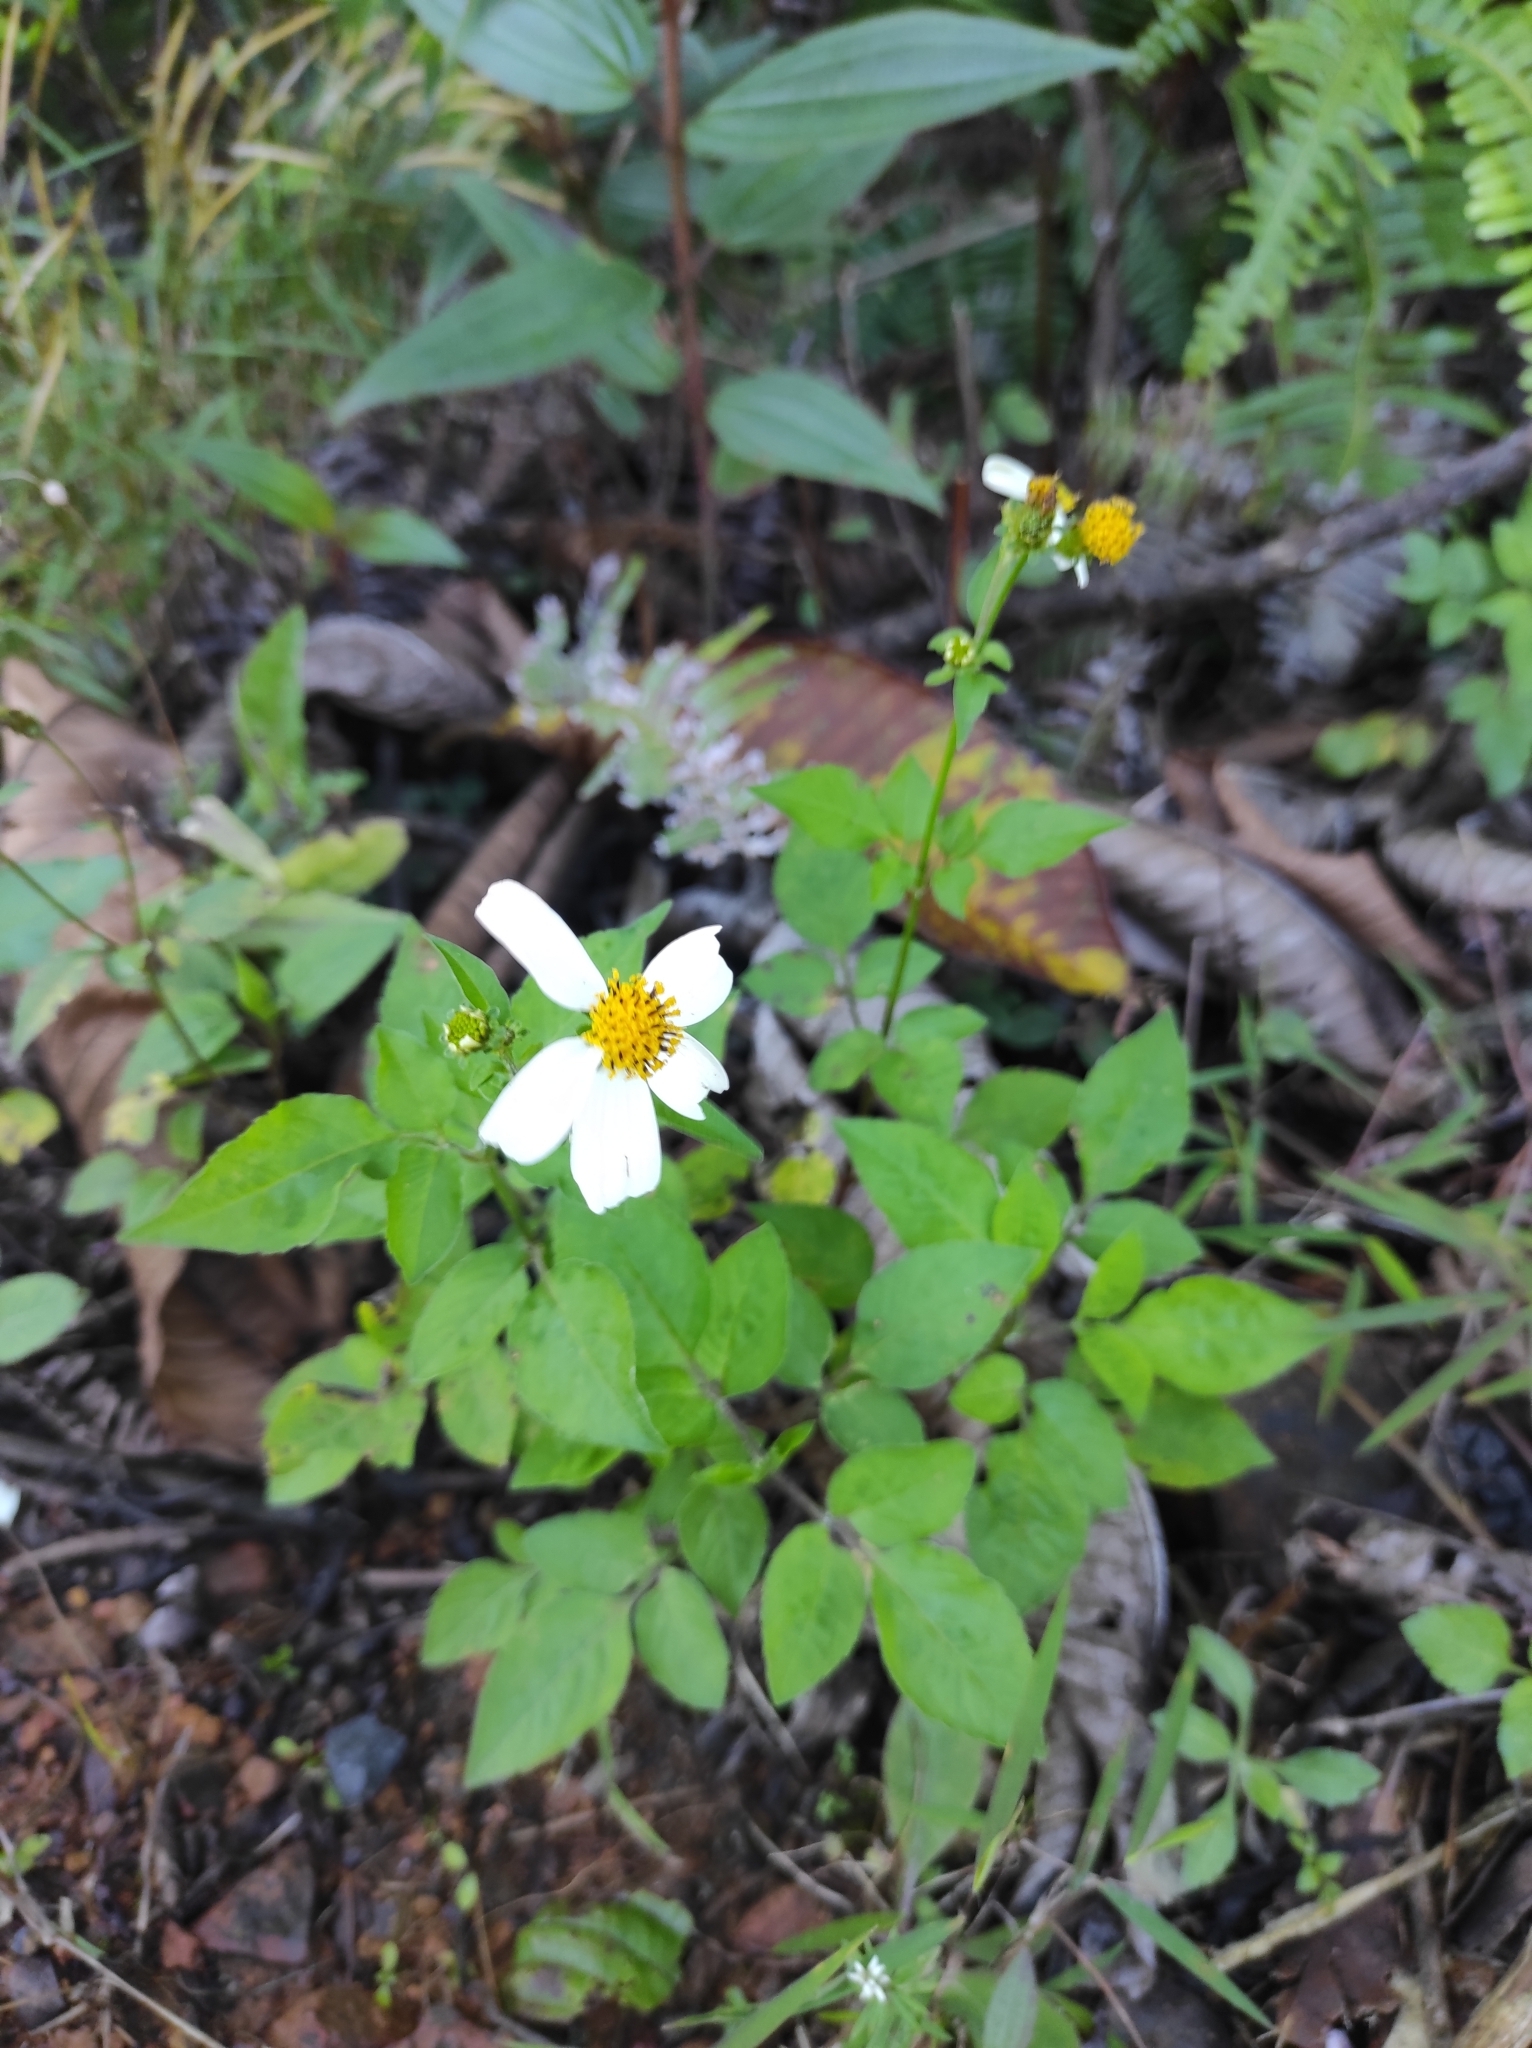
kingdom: Plantae
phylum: Tracheophyta
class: Magnoliopsida
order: Asterales
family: Asteraceae
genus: Bidens
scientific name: Bidens alba
